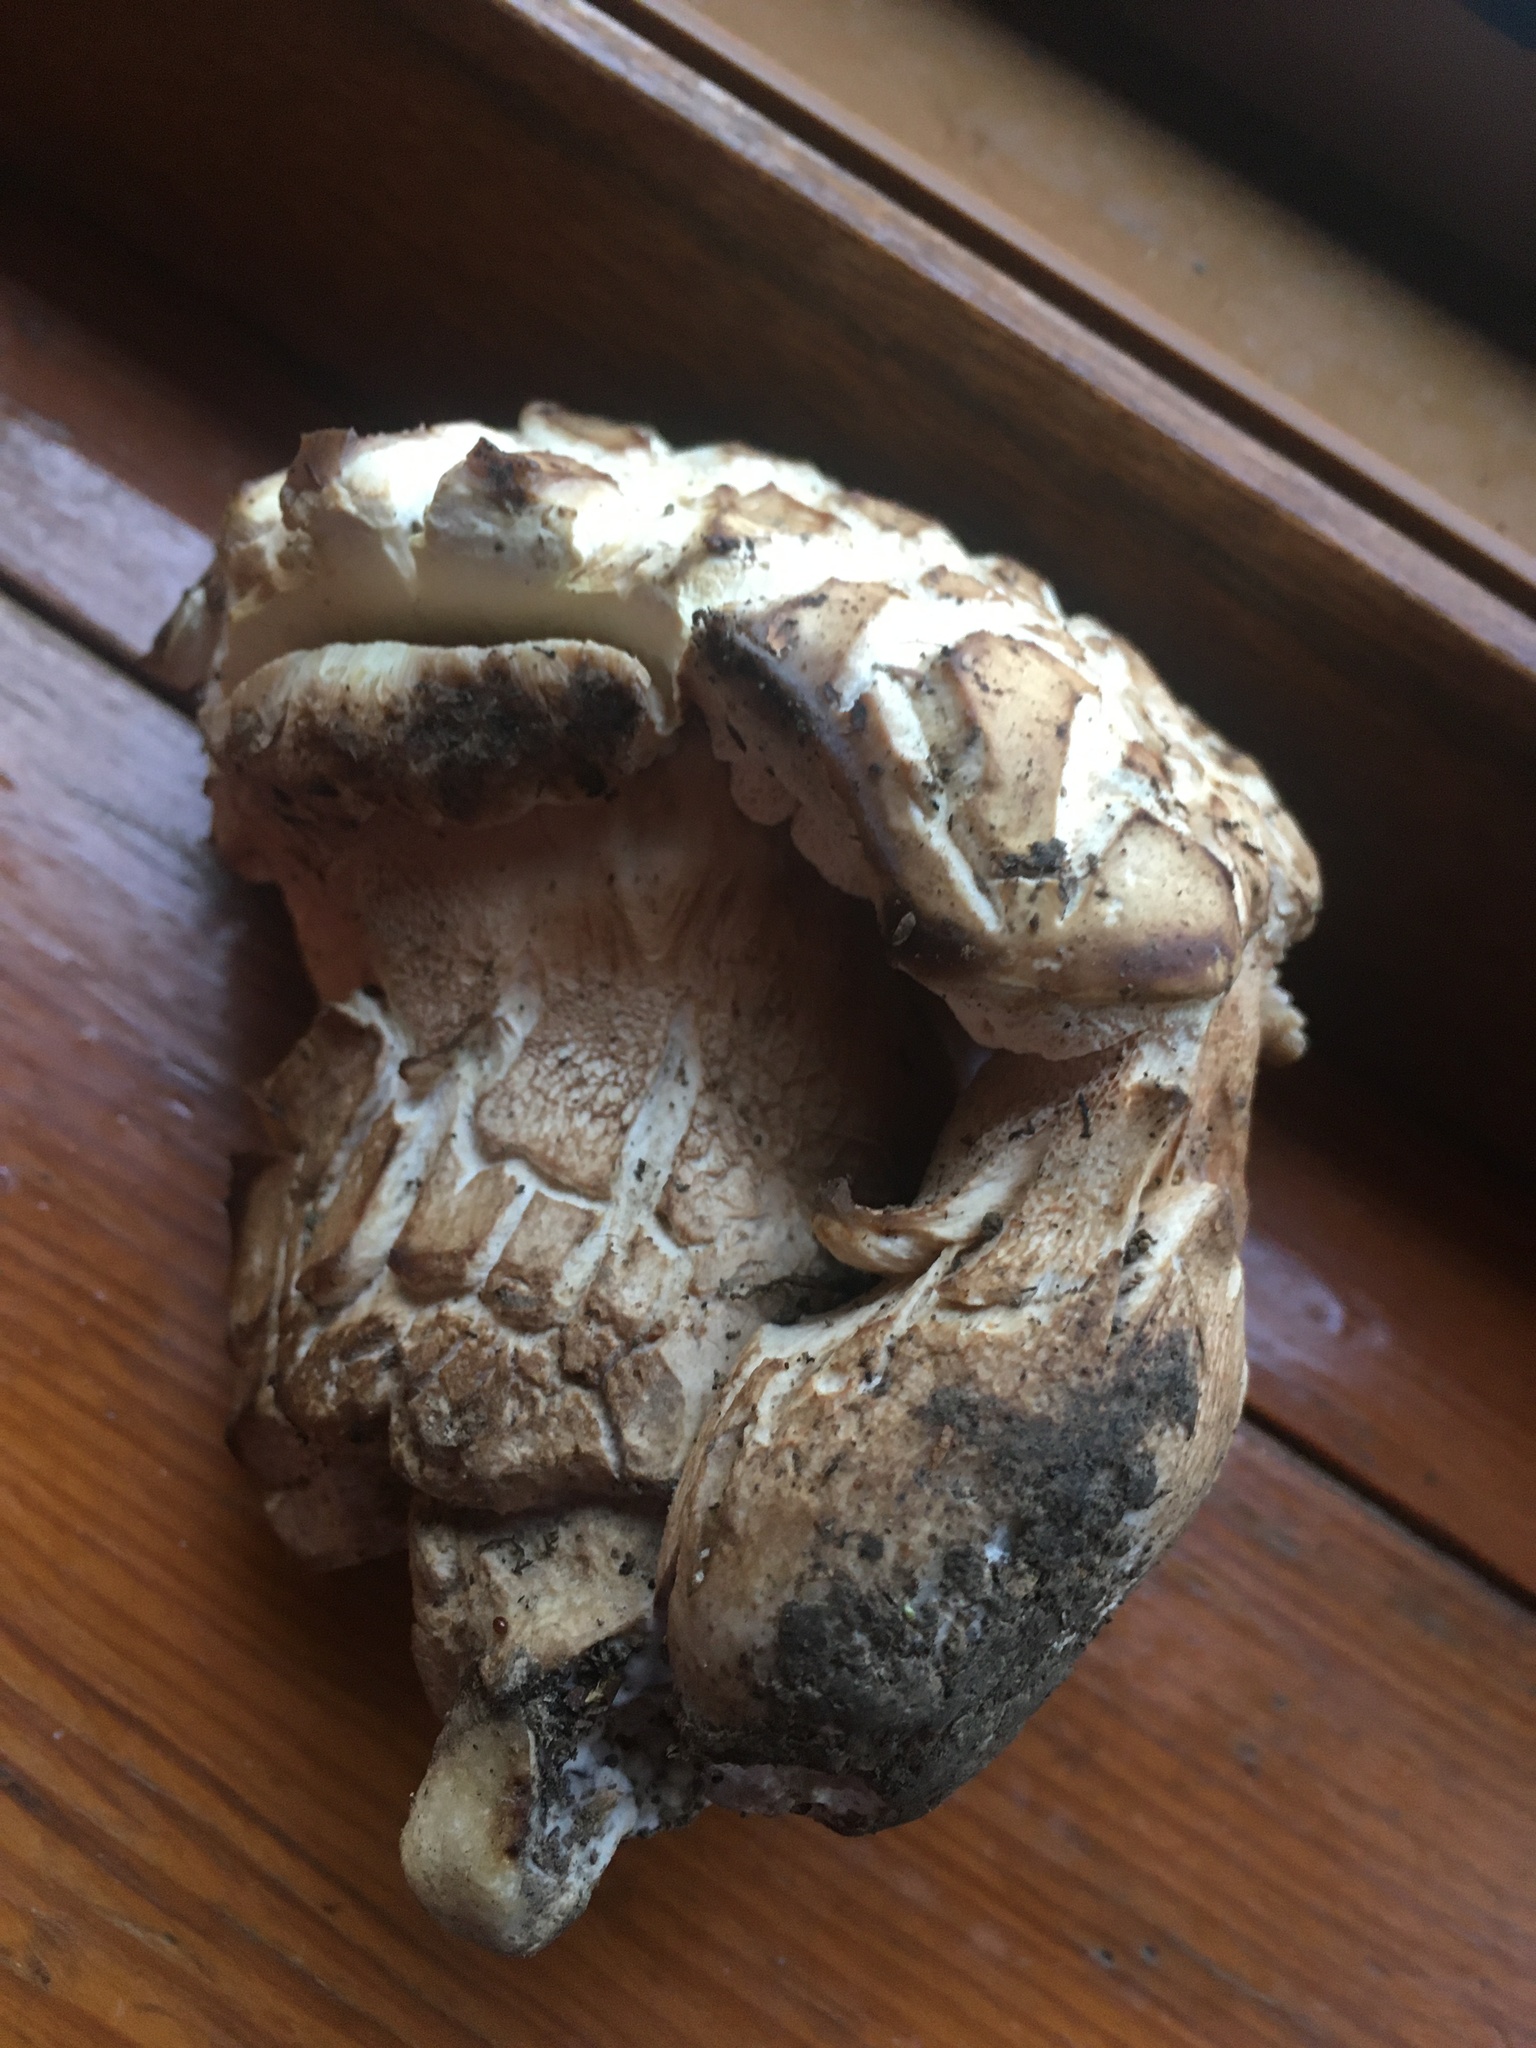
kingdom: Fungi
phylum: Basidiomycota
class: Agaricomycetes
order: Boletales
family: Boletaceae
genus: Boletus
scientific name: Boletus reticulatus
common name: Summer bolete
